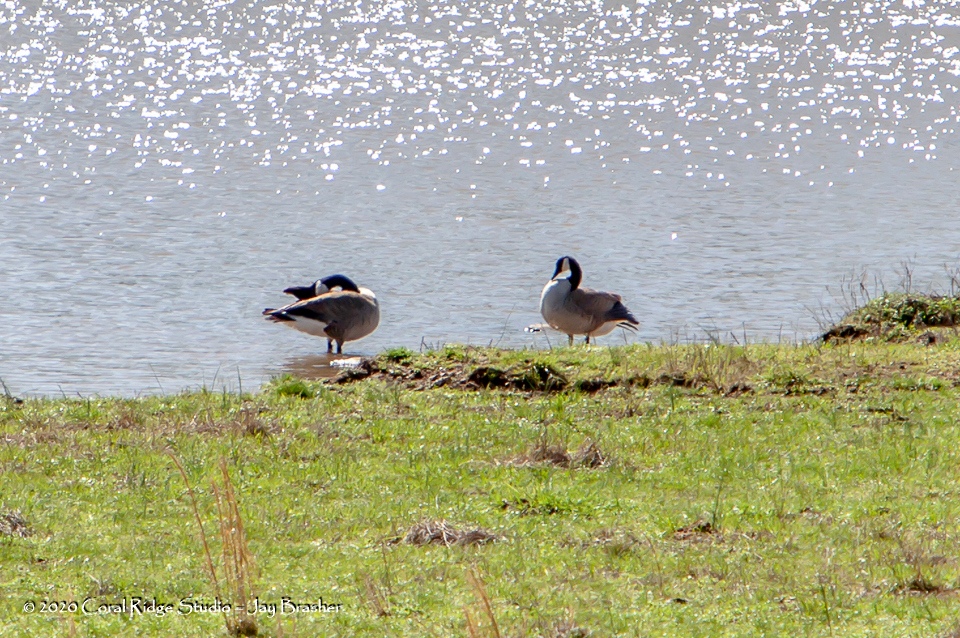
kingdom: Animalia
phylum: Chordata
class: Aves
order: Anseriformes
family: Anatidae
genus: Branta
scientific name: Branta canadensis
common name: Canada goose
